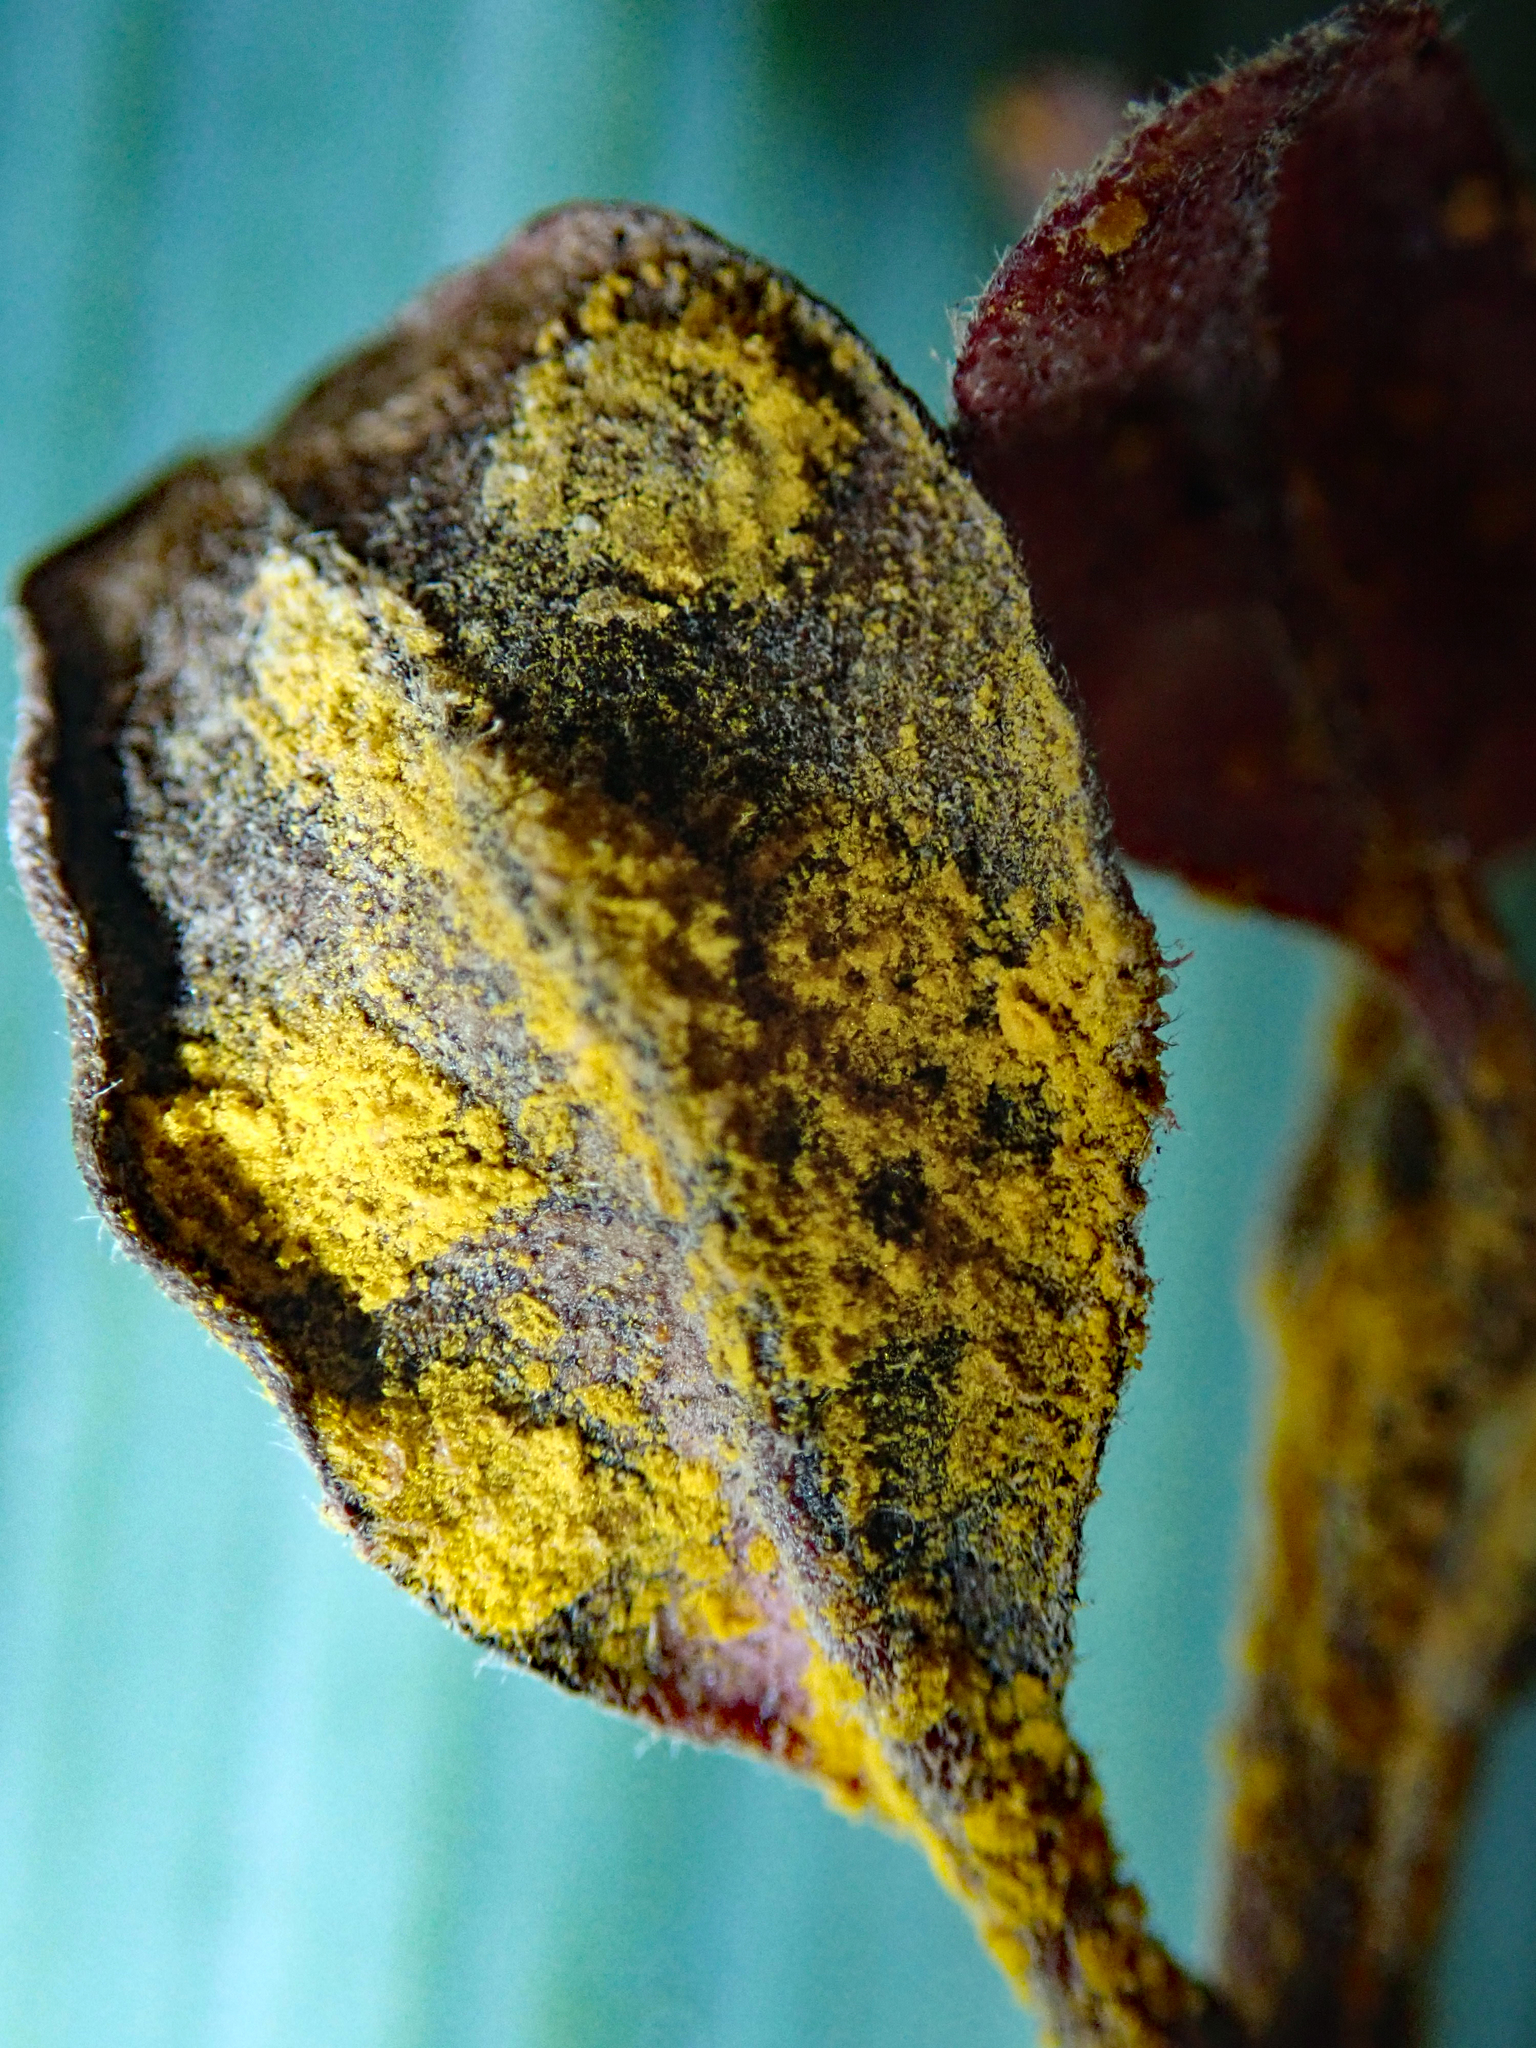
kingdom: Fungi
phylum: Basidiomycota
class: Pucciniomycetes
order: Pucciniales
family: Sphaerophragmiaceae
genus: Austropuccinia
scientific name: Austropuccinia psidii
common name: Myrtle rust
